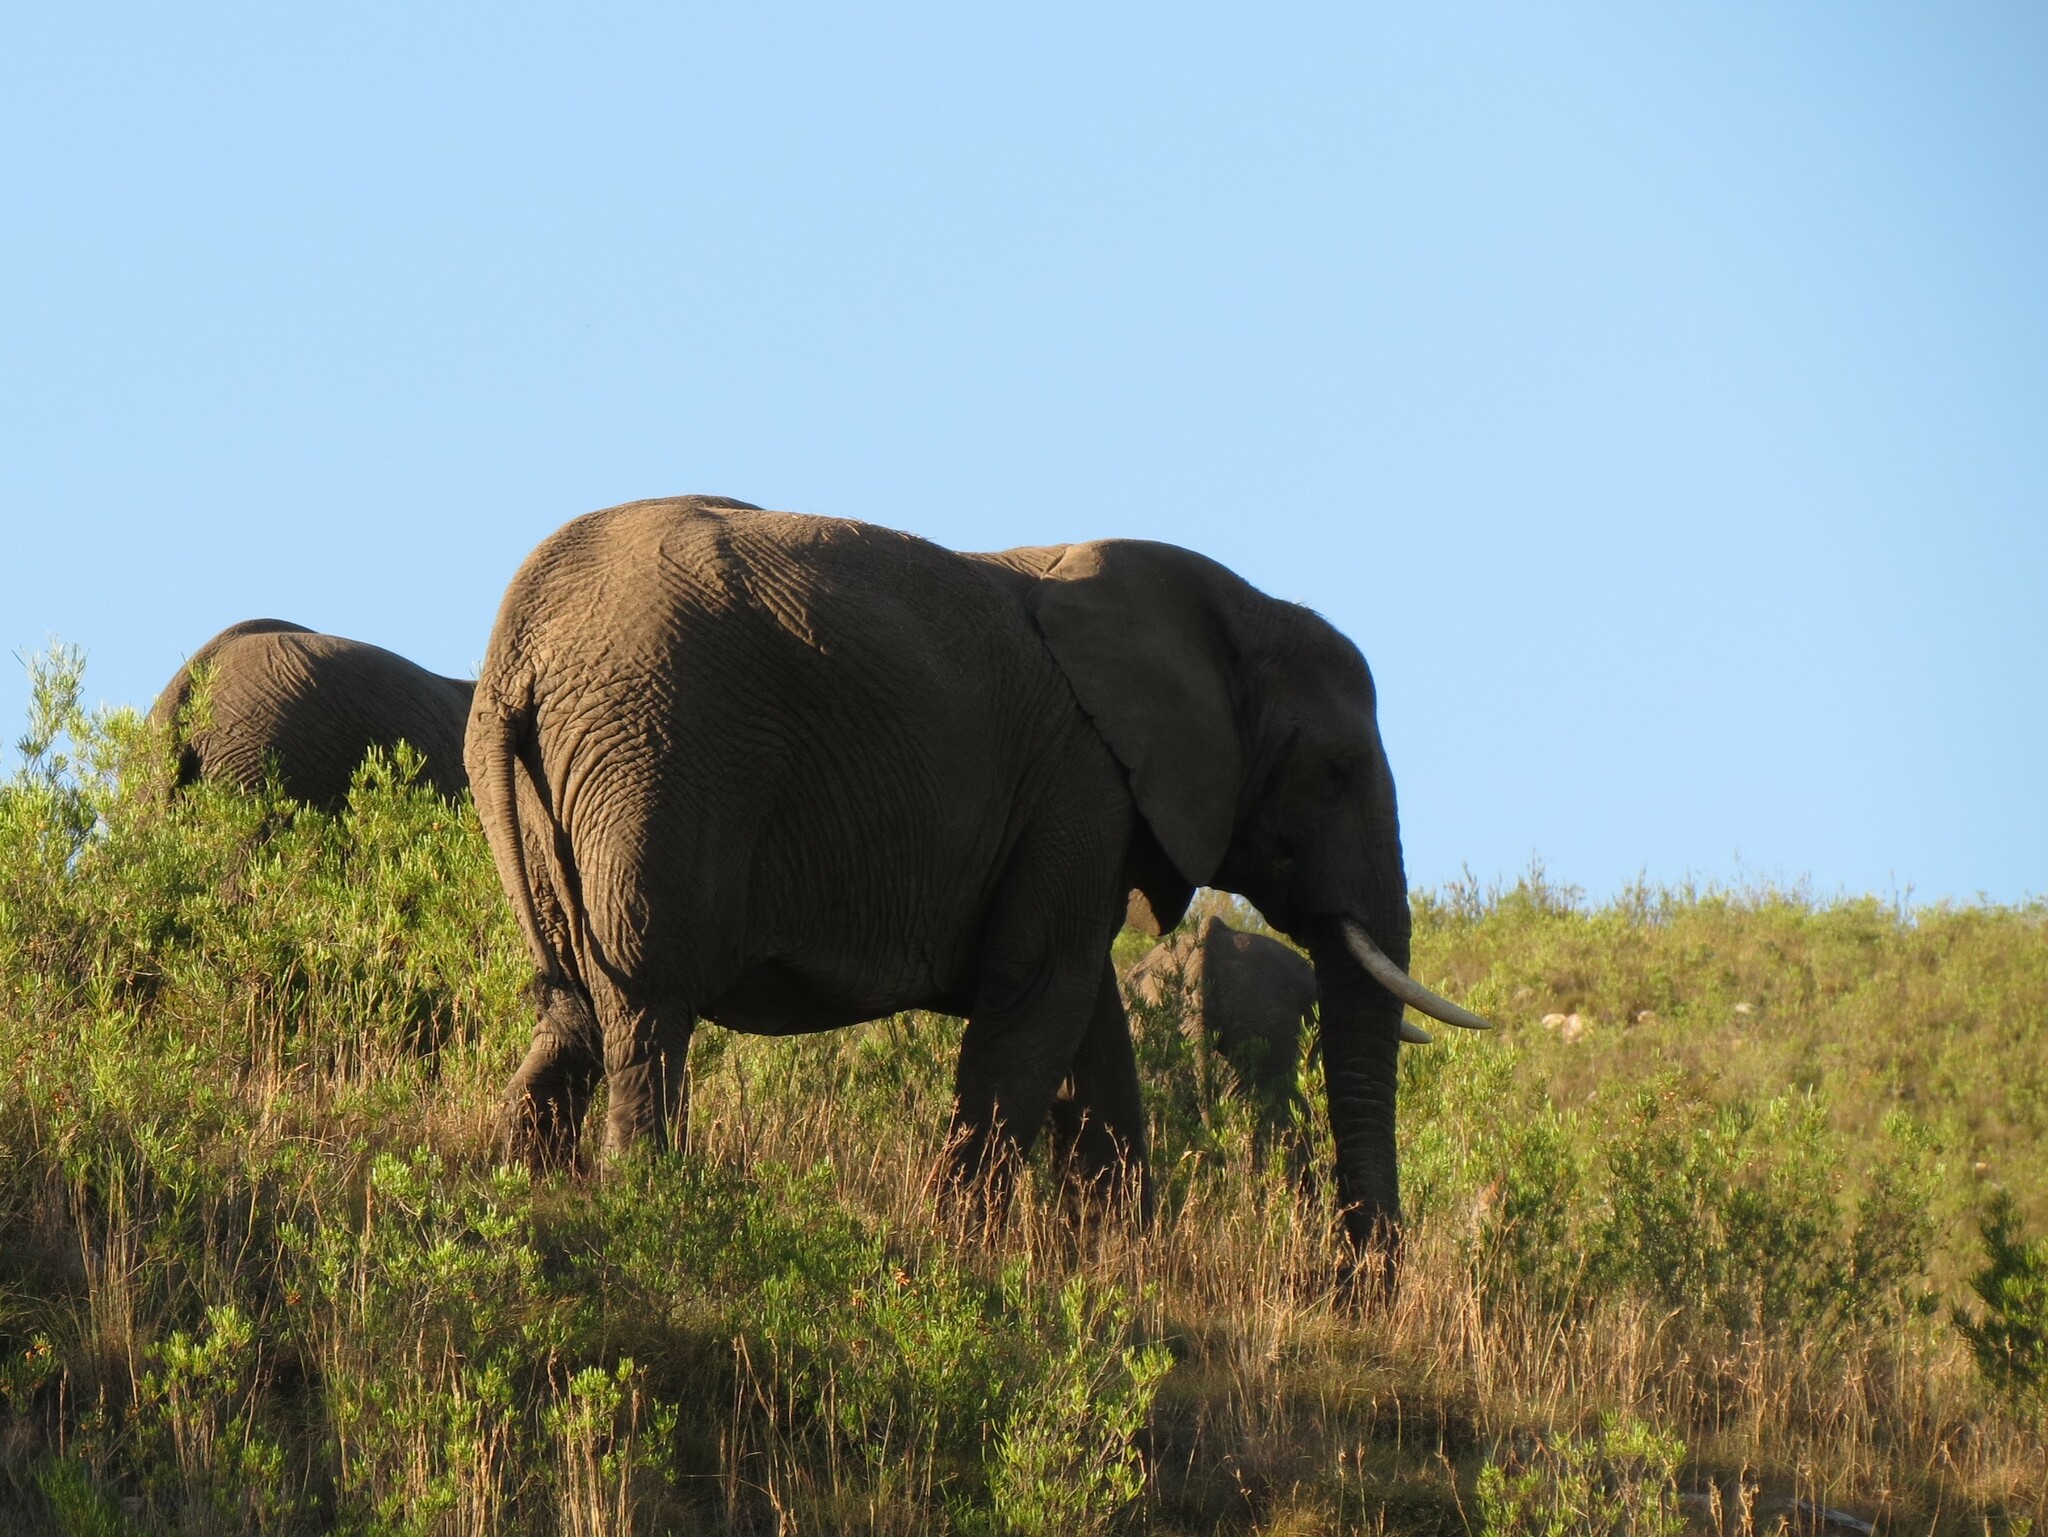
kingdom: Animalia
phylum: Chordata
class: Mammalia
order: Proboscidea
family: Elephantidae
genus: Loxodonta
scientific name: Loxodonta africana
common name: African elephant
